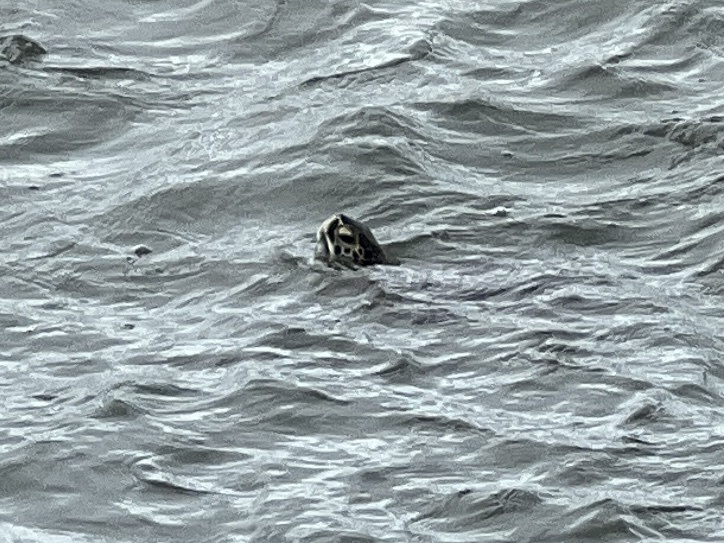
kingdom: Animalia
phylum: Chordata
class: Testudines
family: Cheloniidae
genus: Chelonia
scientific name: Chelonia mydas
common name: Green turtle
